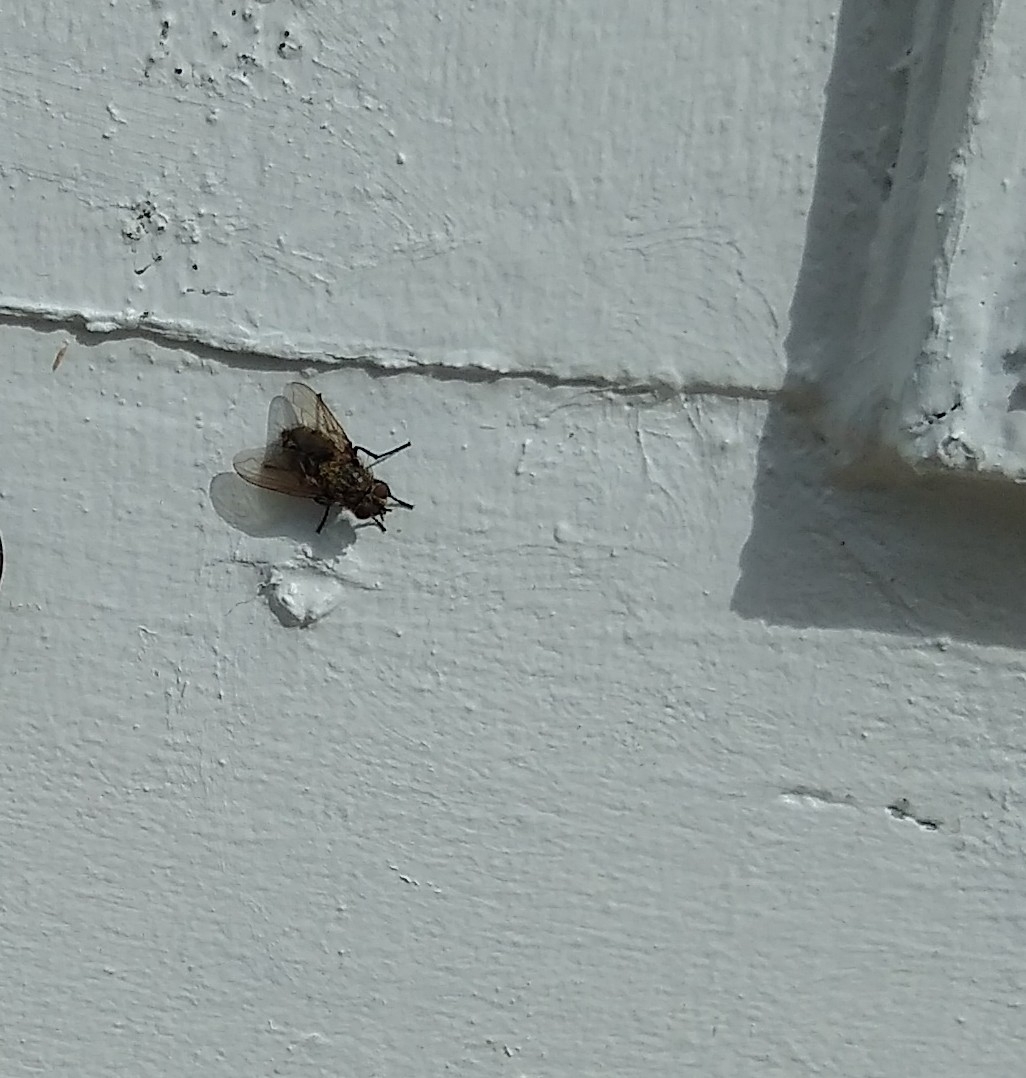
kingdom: Animalia
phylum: Arthropoda
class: Insecta
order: Diptera
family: Polleniidae
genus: Pollenia
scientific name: Pollenia
